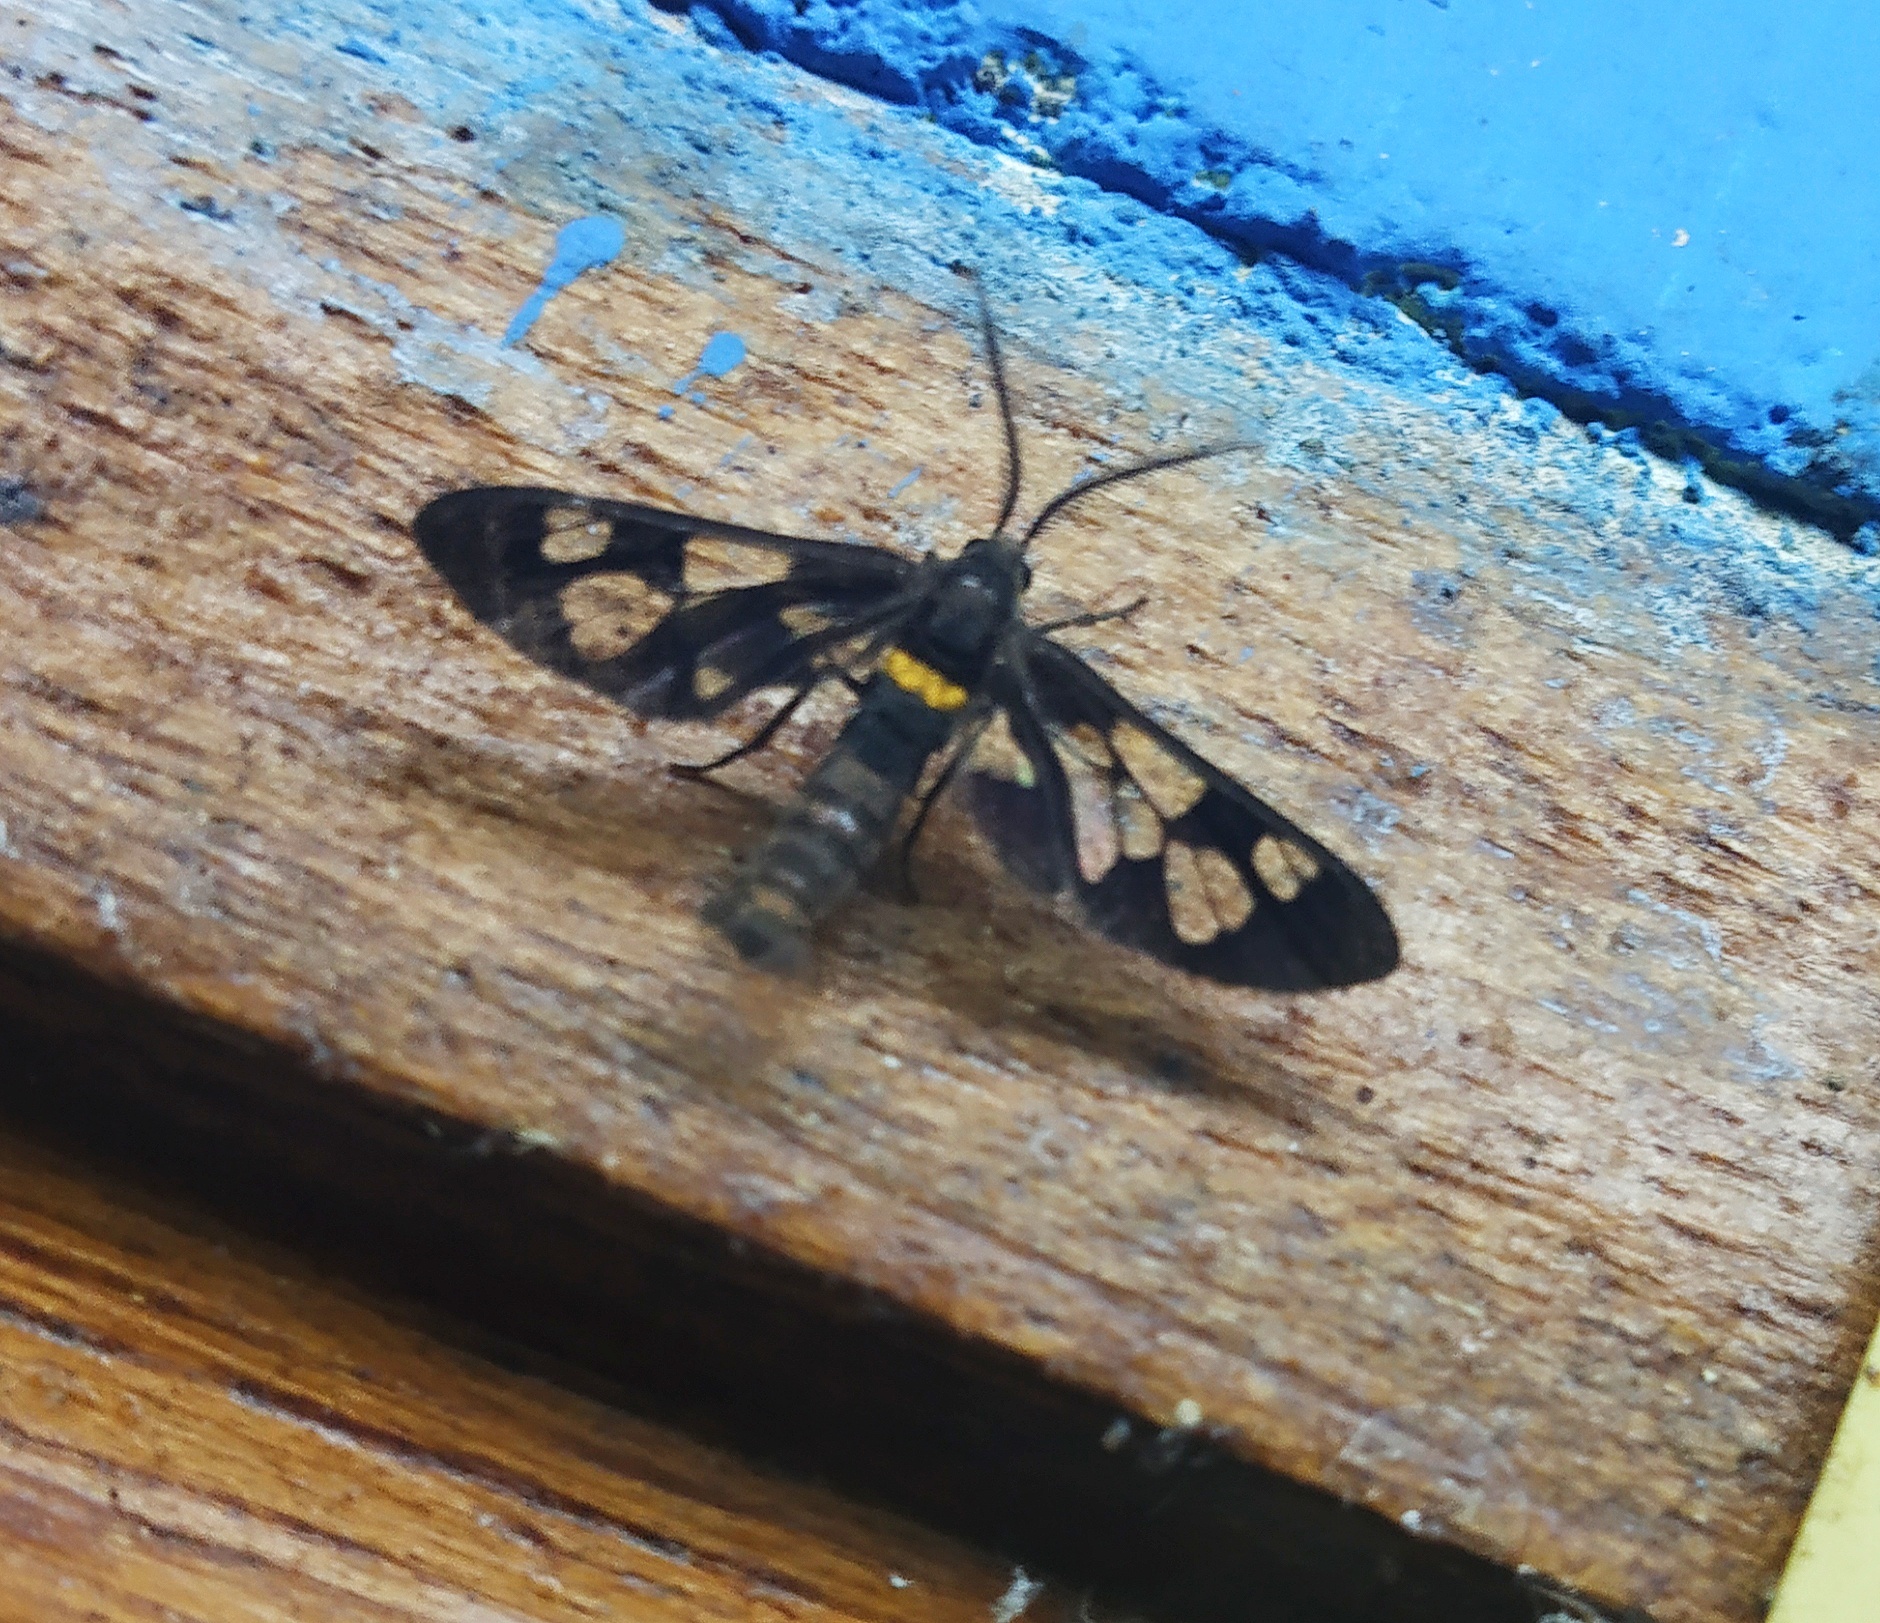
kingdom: Animalia
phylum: Arthropoda
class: Insecta
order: Lepidoptera
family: Erebidae
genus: Syntomoides
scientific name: Syntomoides imaon
